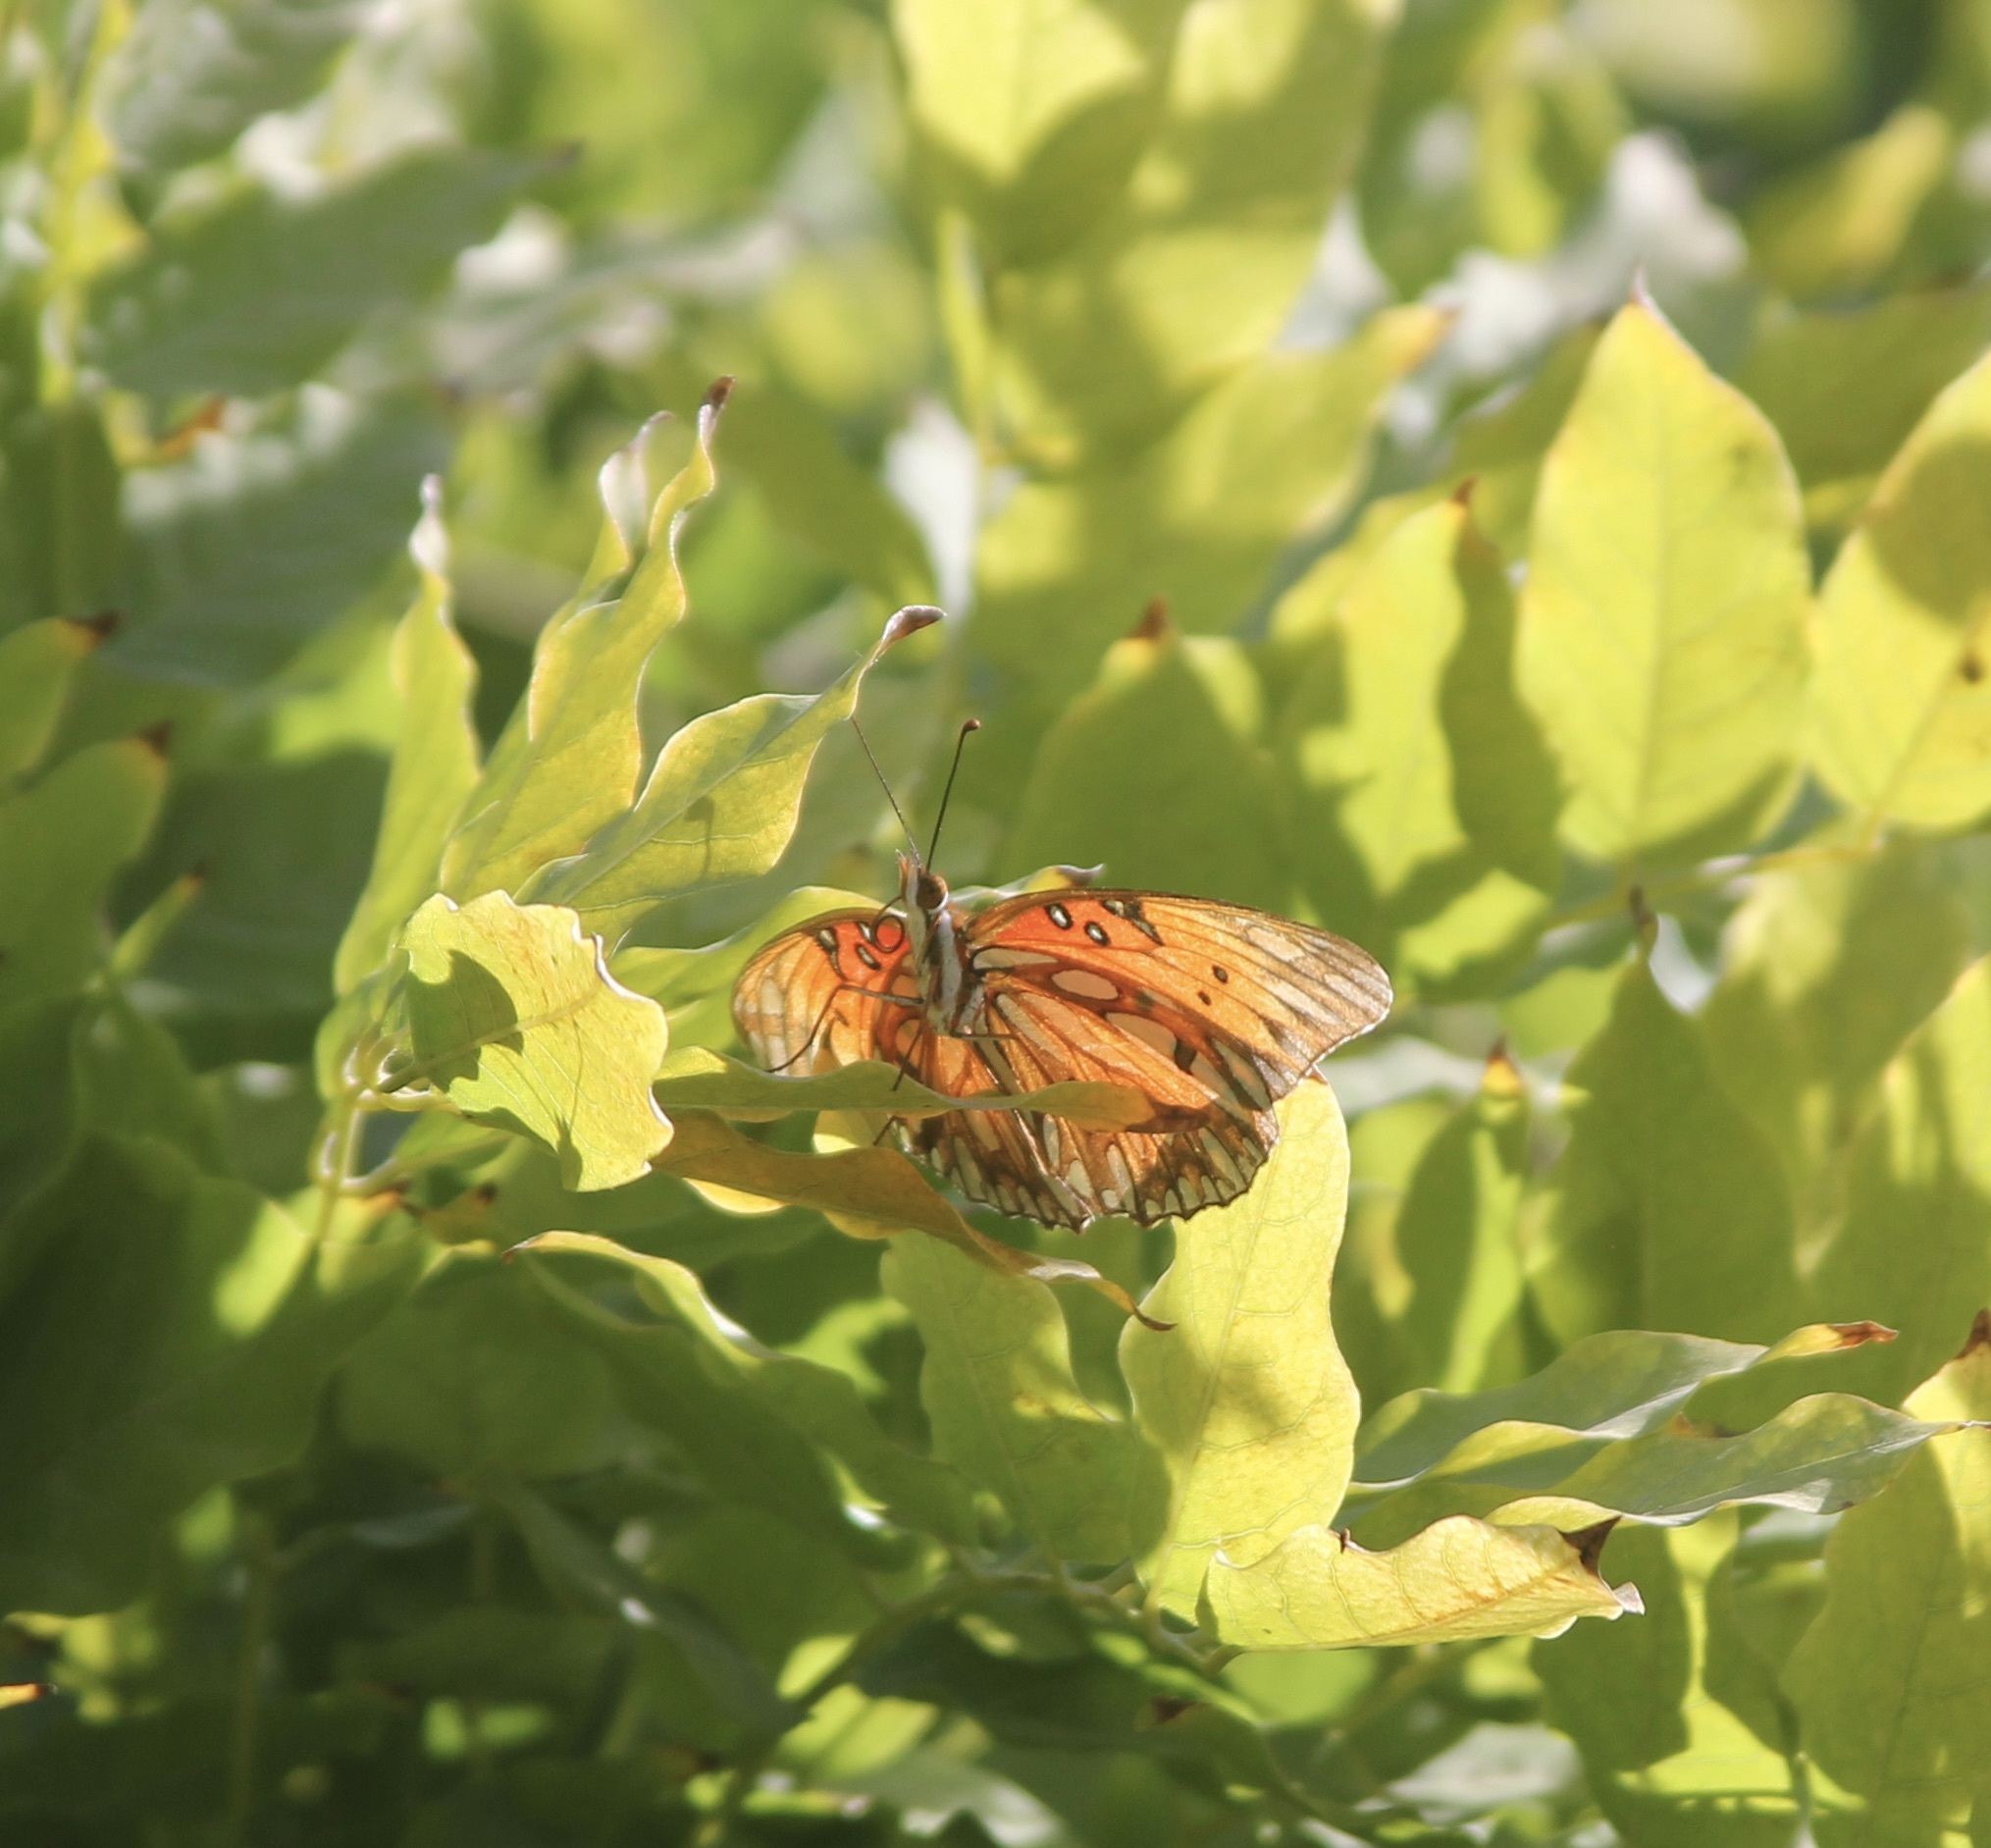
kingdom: Animalia
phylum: Arthropoda
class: Insecta
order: Lepidoptera
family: Nymphalidae
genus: Dione
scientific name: Dione vanillae
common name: Gulf fritillary
